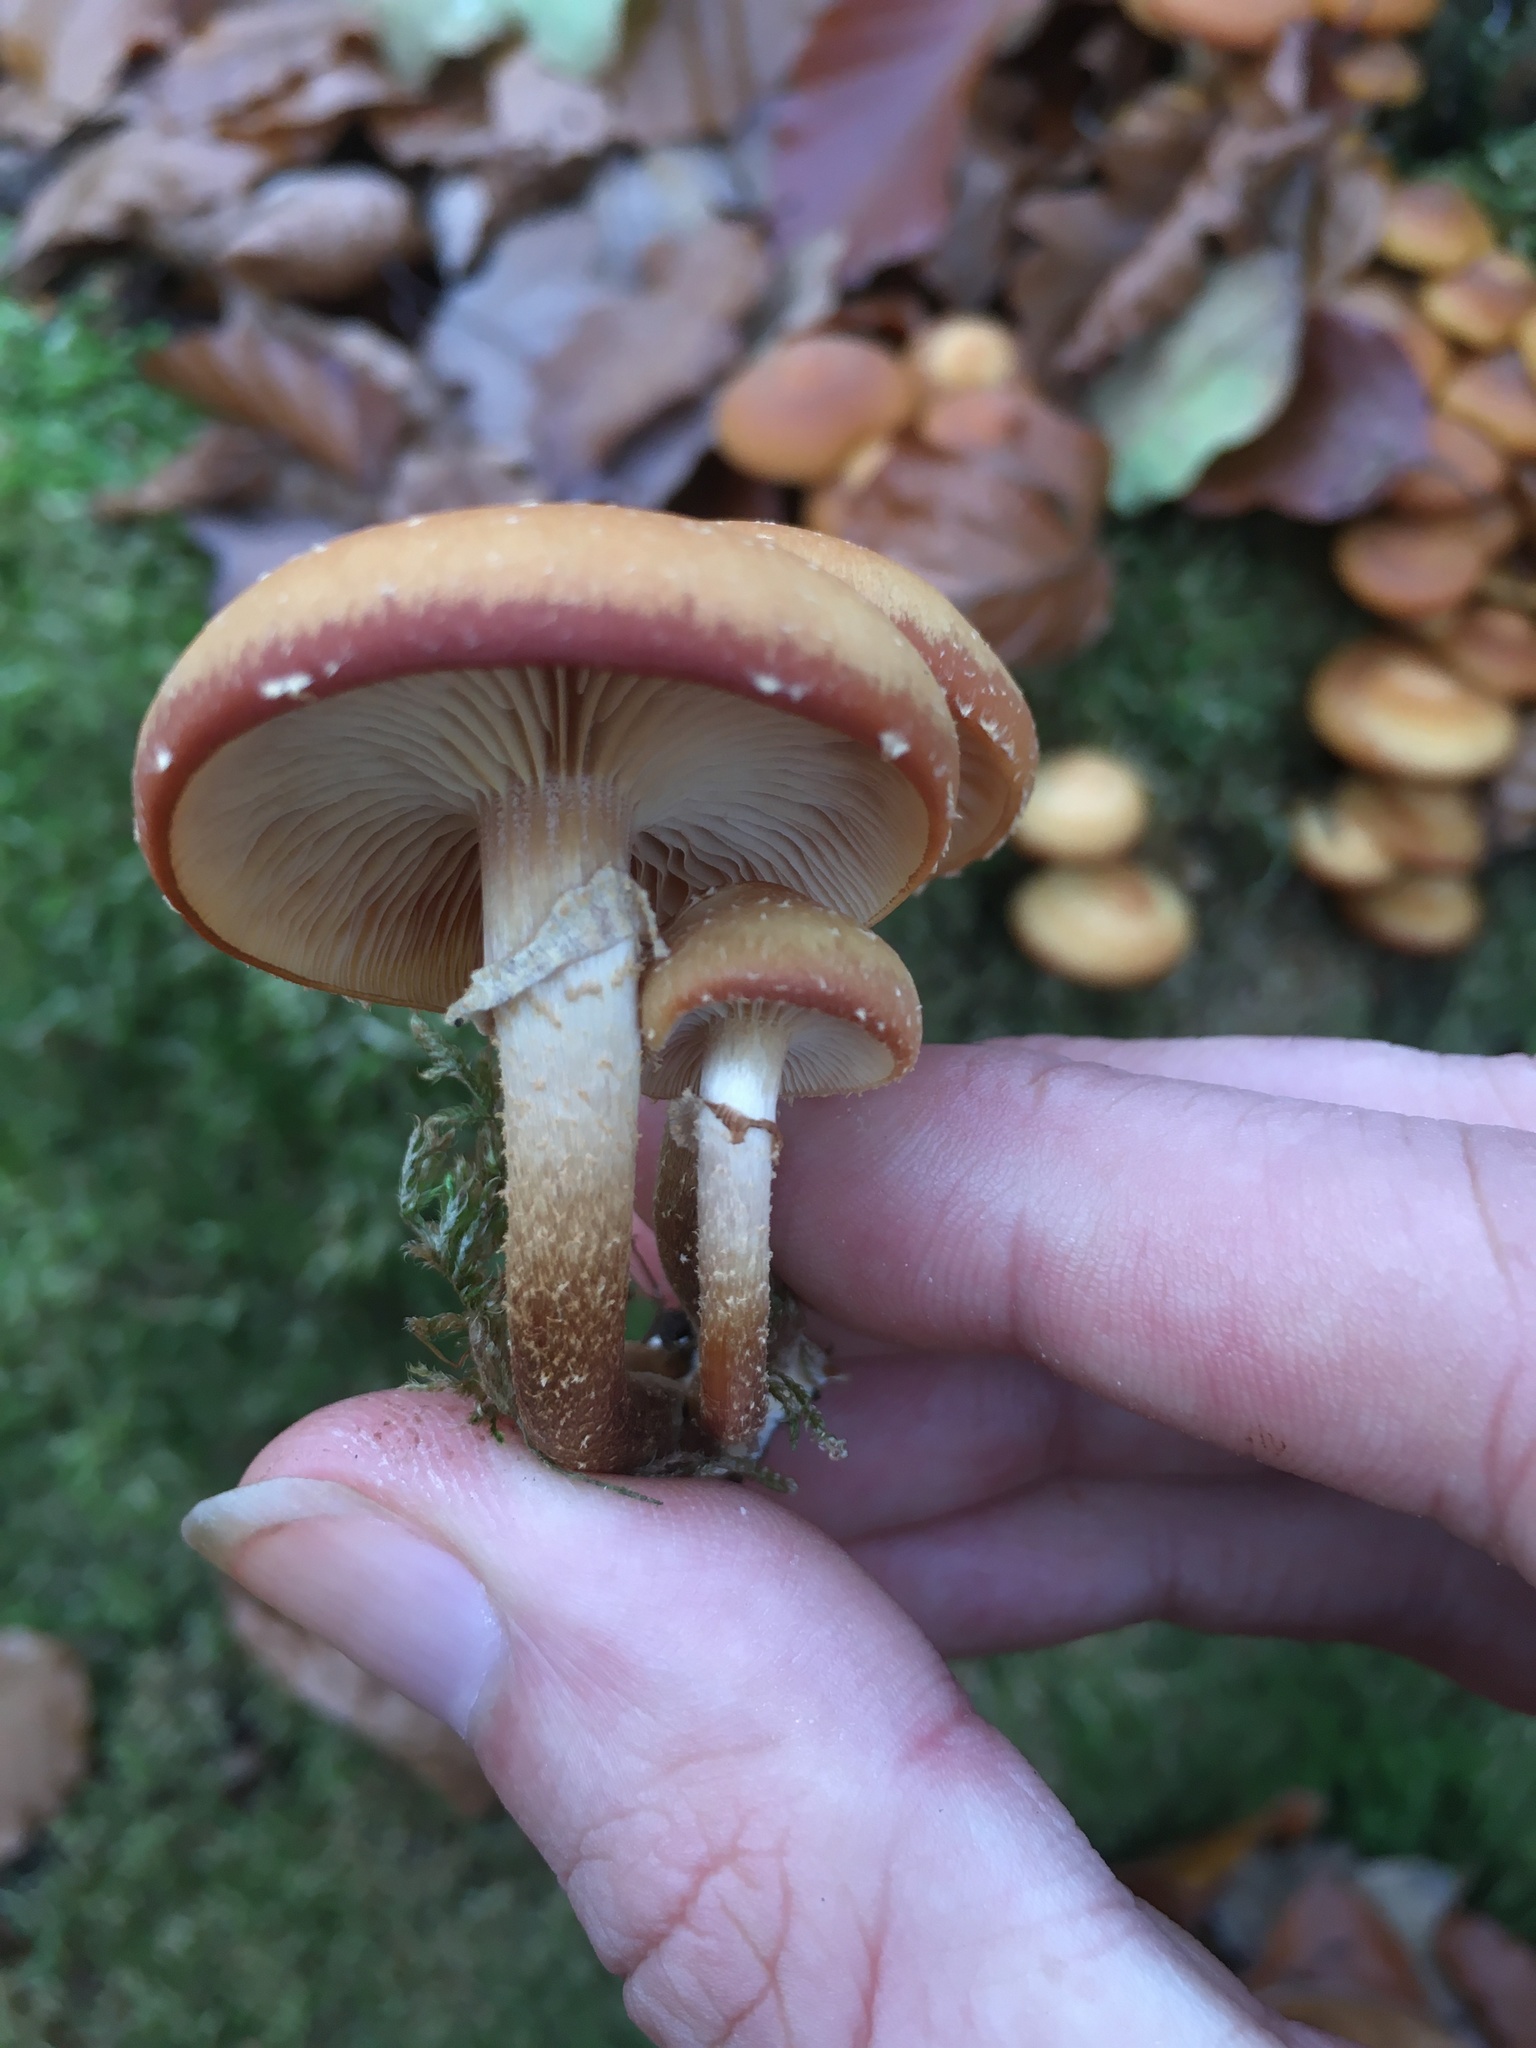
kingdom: Fungi
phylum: Basidiomycota
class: Agaricomycetes
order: Agaricales
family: Strophariaceae
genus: Kuehneromyces
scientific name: Kuehneromyces mutabilis
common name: Sheathed woodtuft
